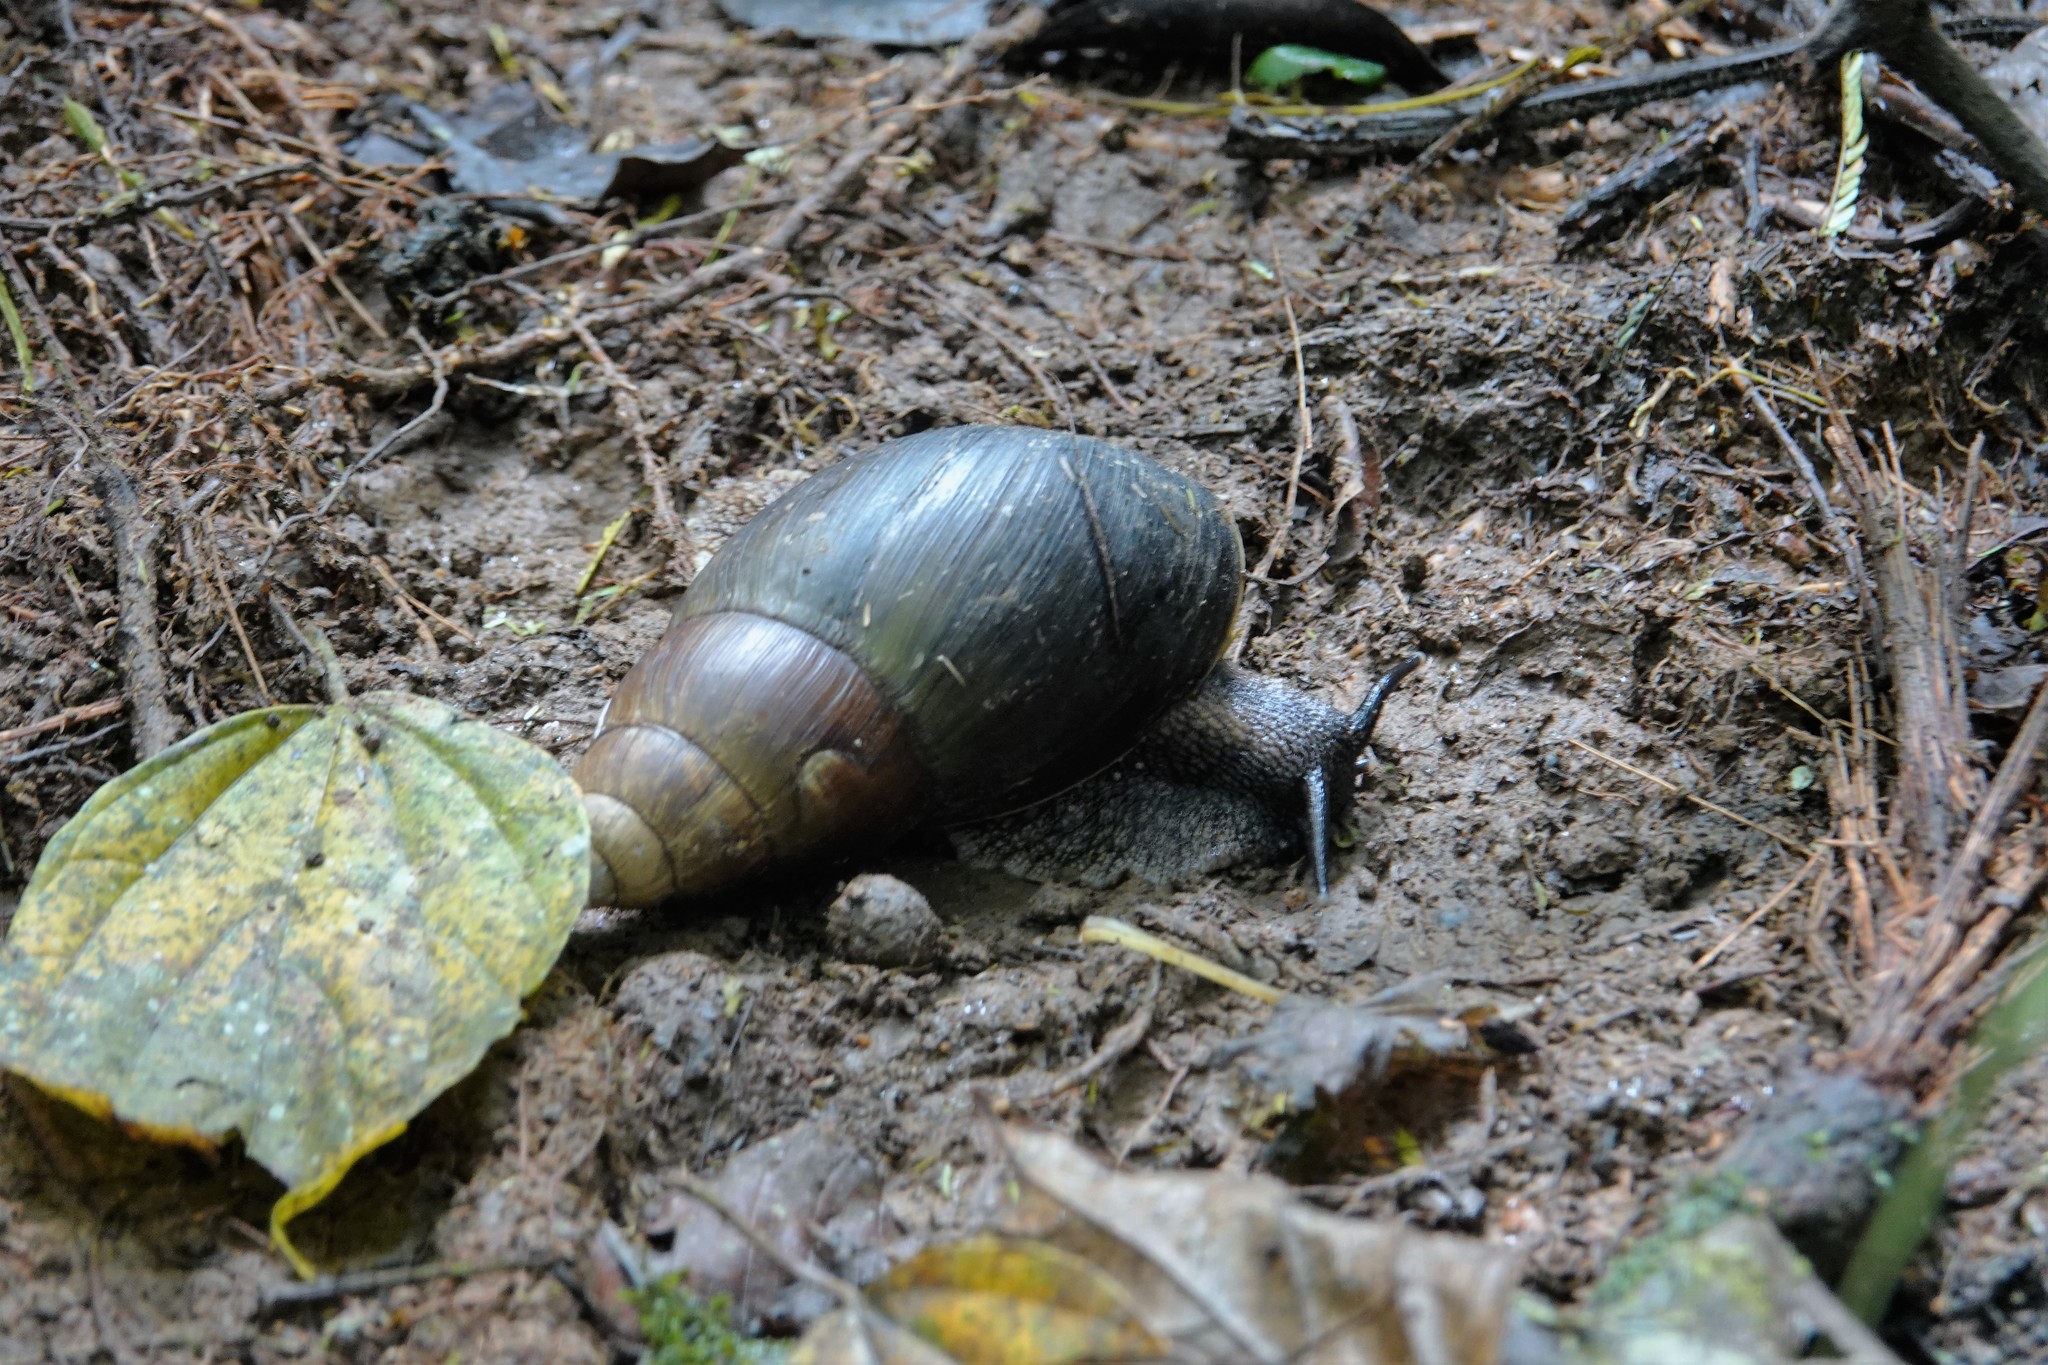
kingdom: Animalia
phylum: Mollusca
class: Gastropoda
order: Stylommatophora
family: Achatinidae
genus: Achatina
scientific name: Achatina stuhlmanni
